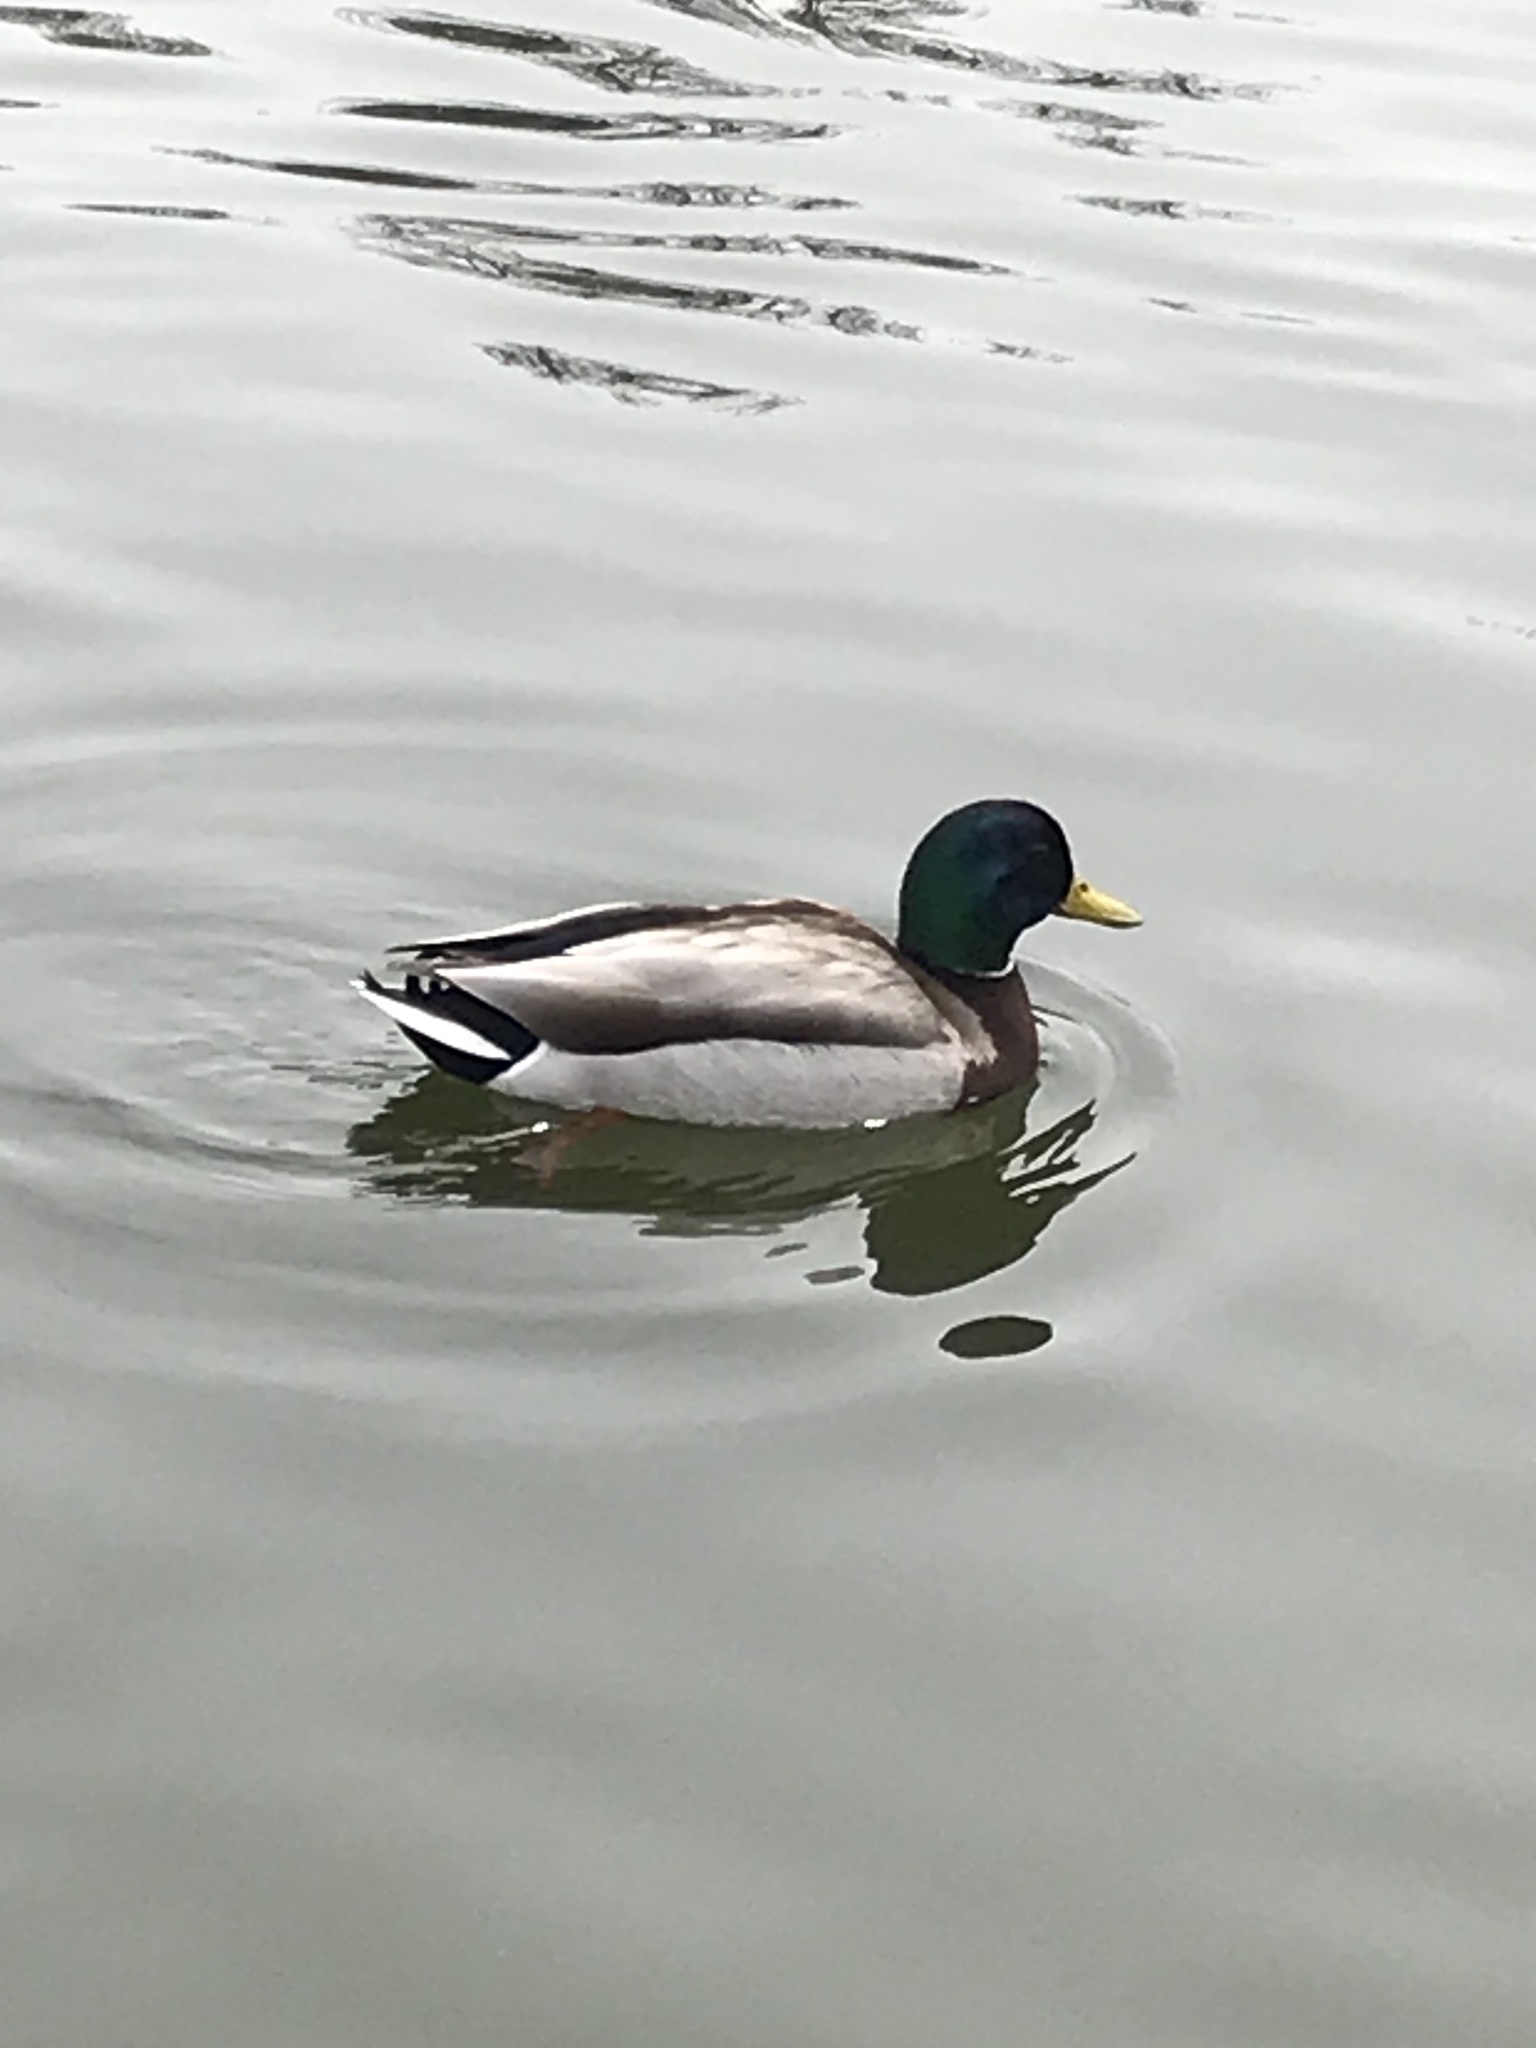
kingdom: Animalia
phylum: Chordata
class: Aves
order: Anseriformes
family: Anatidae
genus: Anas
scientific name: Anas platyrhynchos
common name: Mallard
